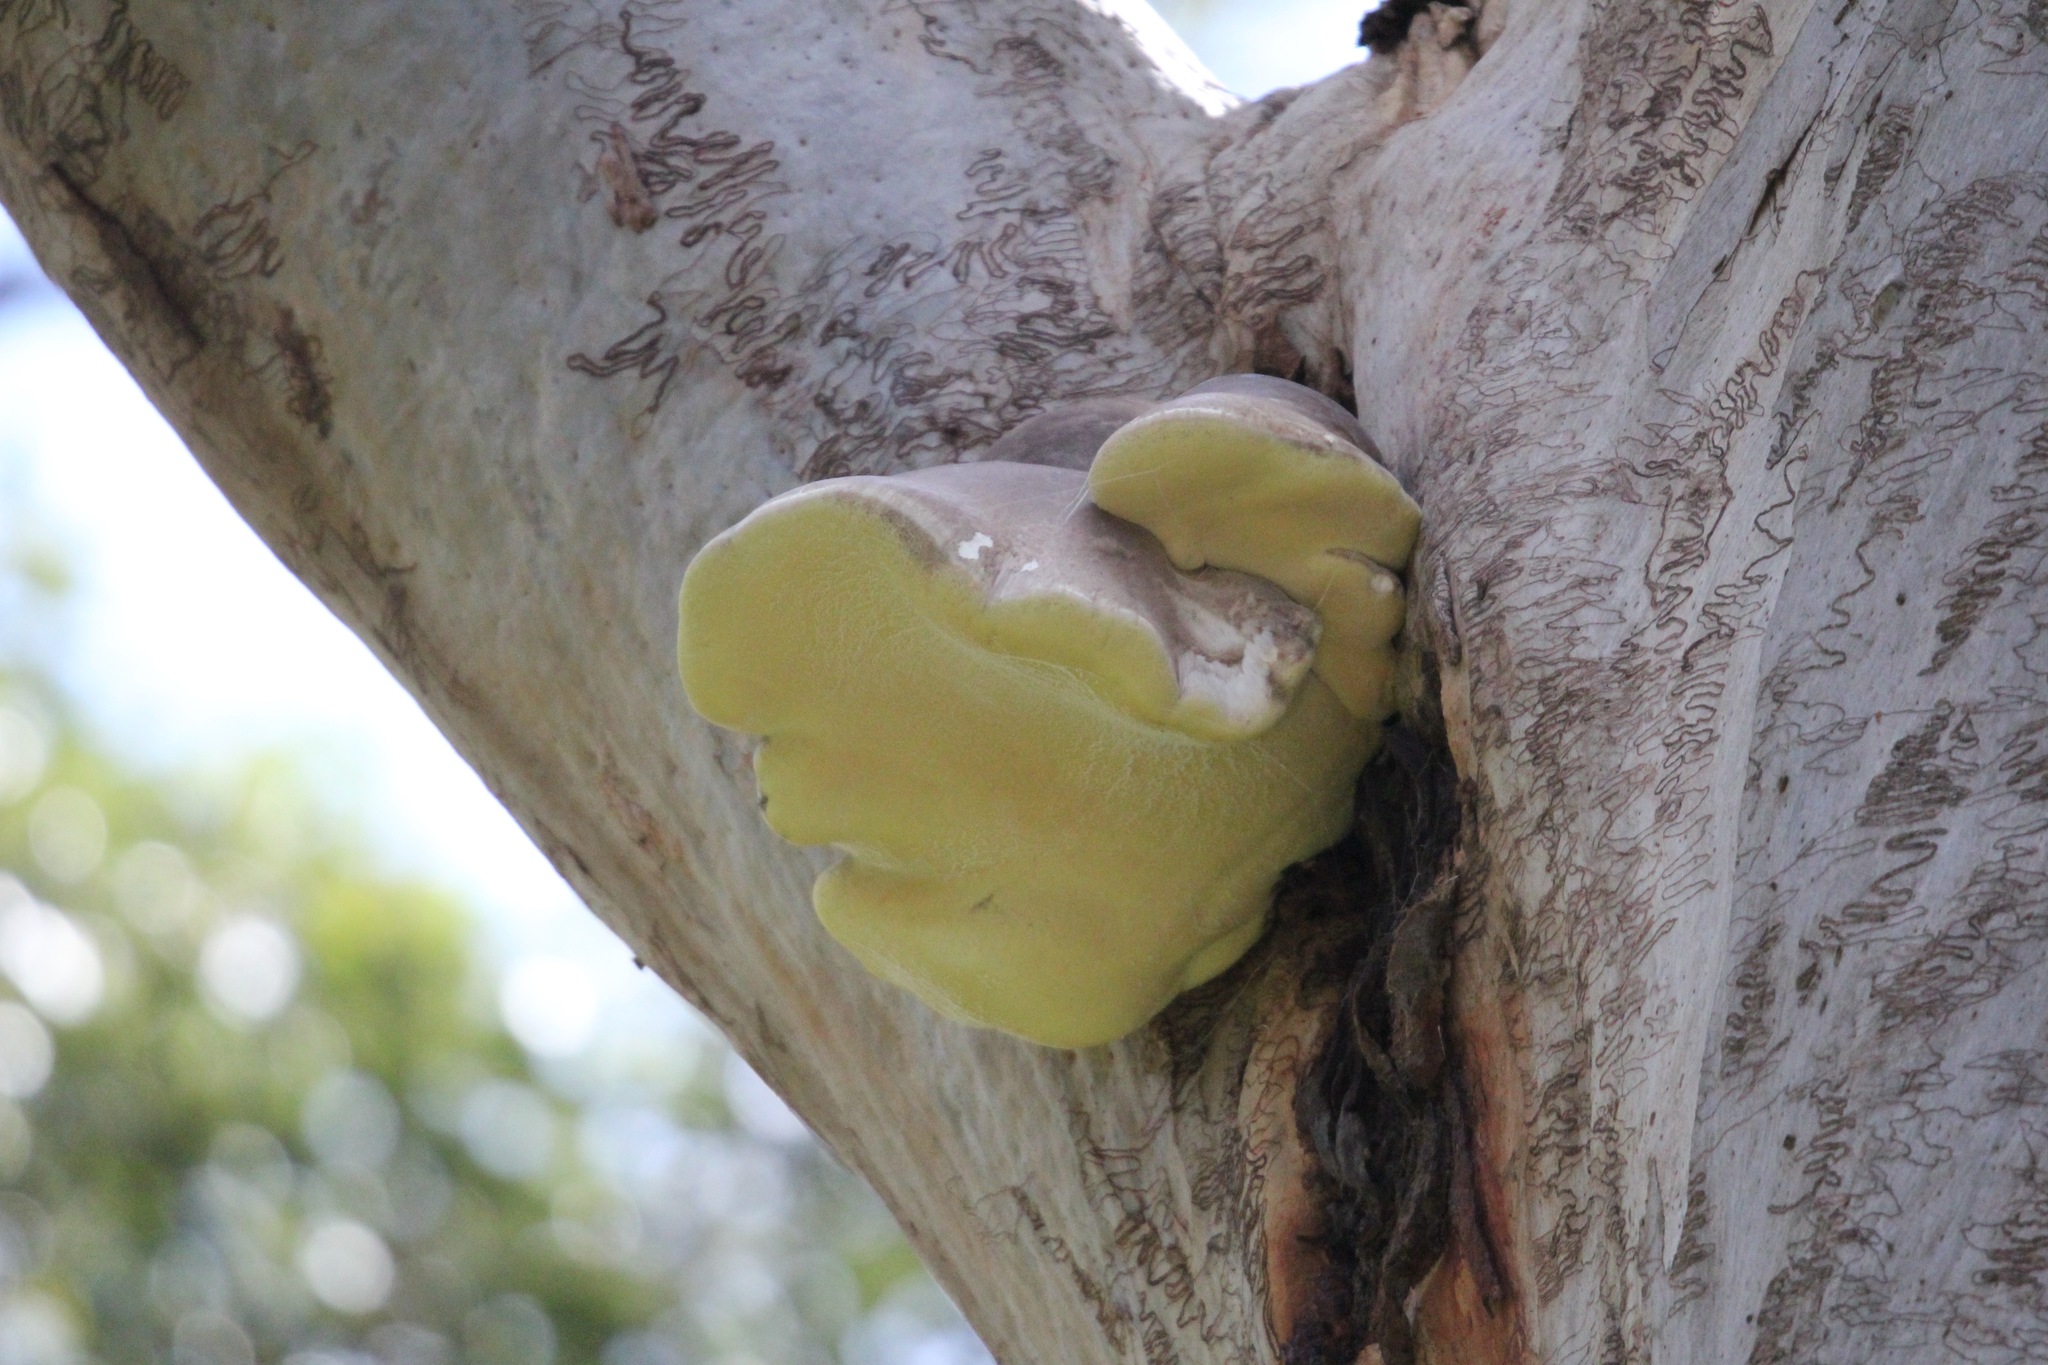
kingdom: Fungi
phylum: Basidiomycota
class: Agaricomycetes
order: Polyporales
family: Laetiporaceae
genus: Laetiporus
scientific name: Laetiporus portentosus
